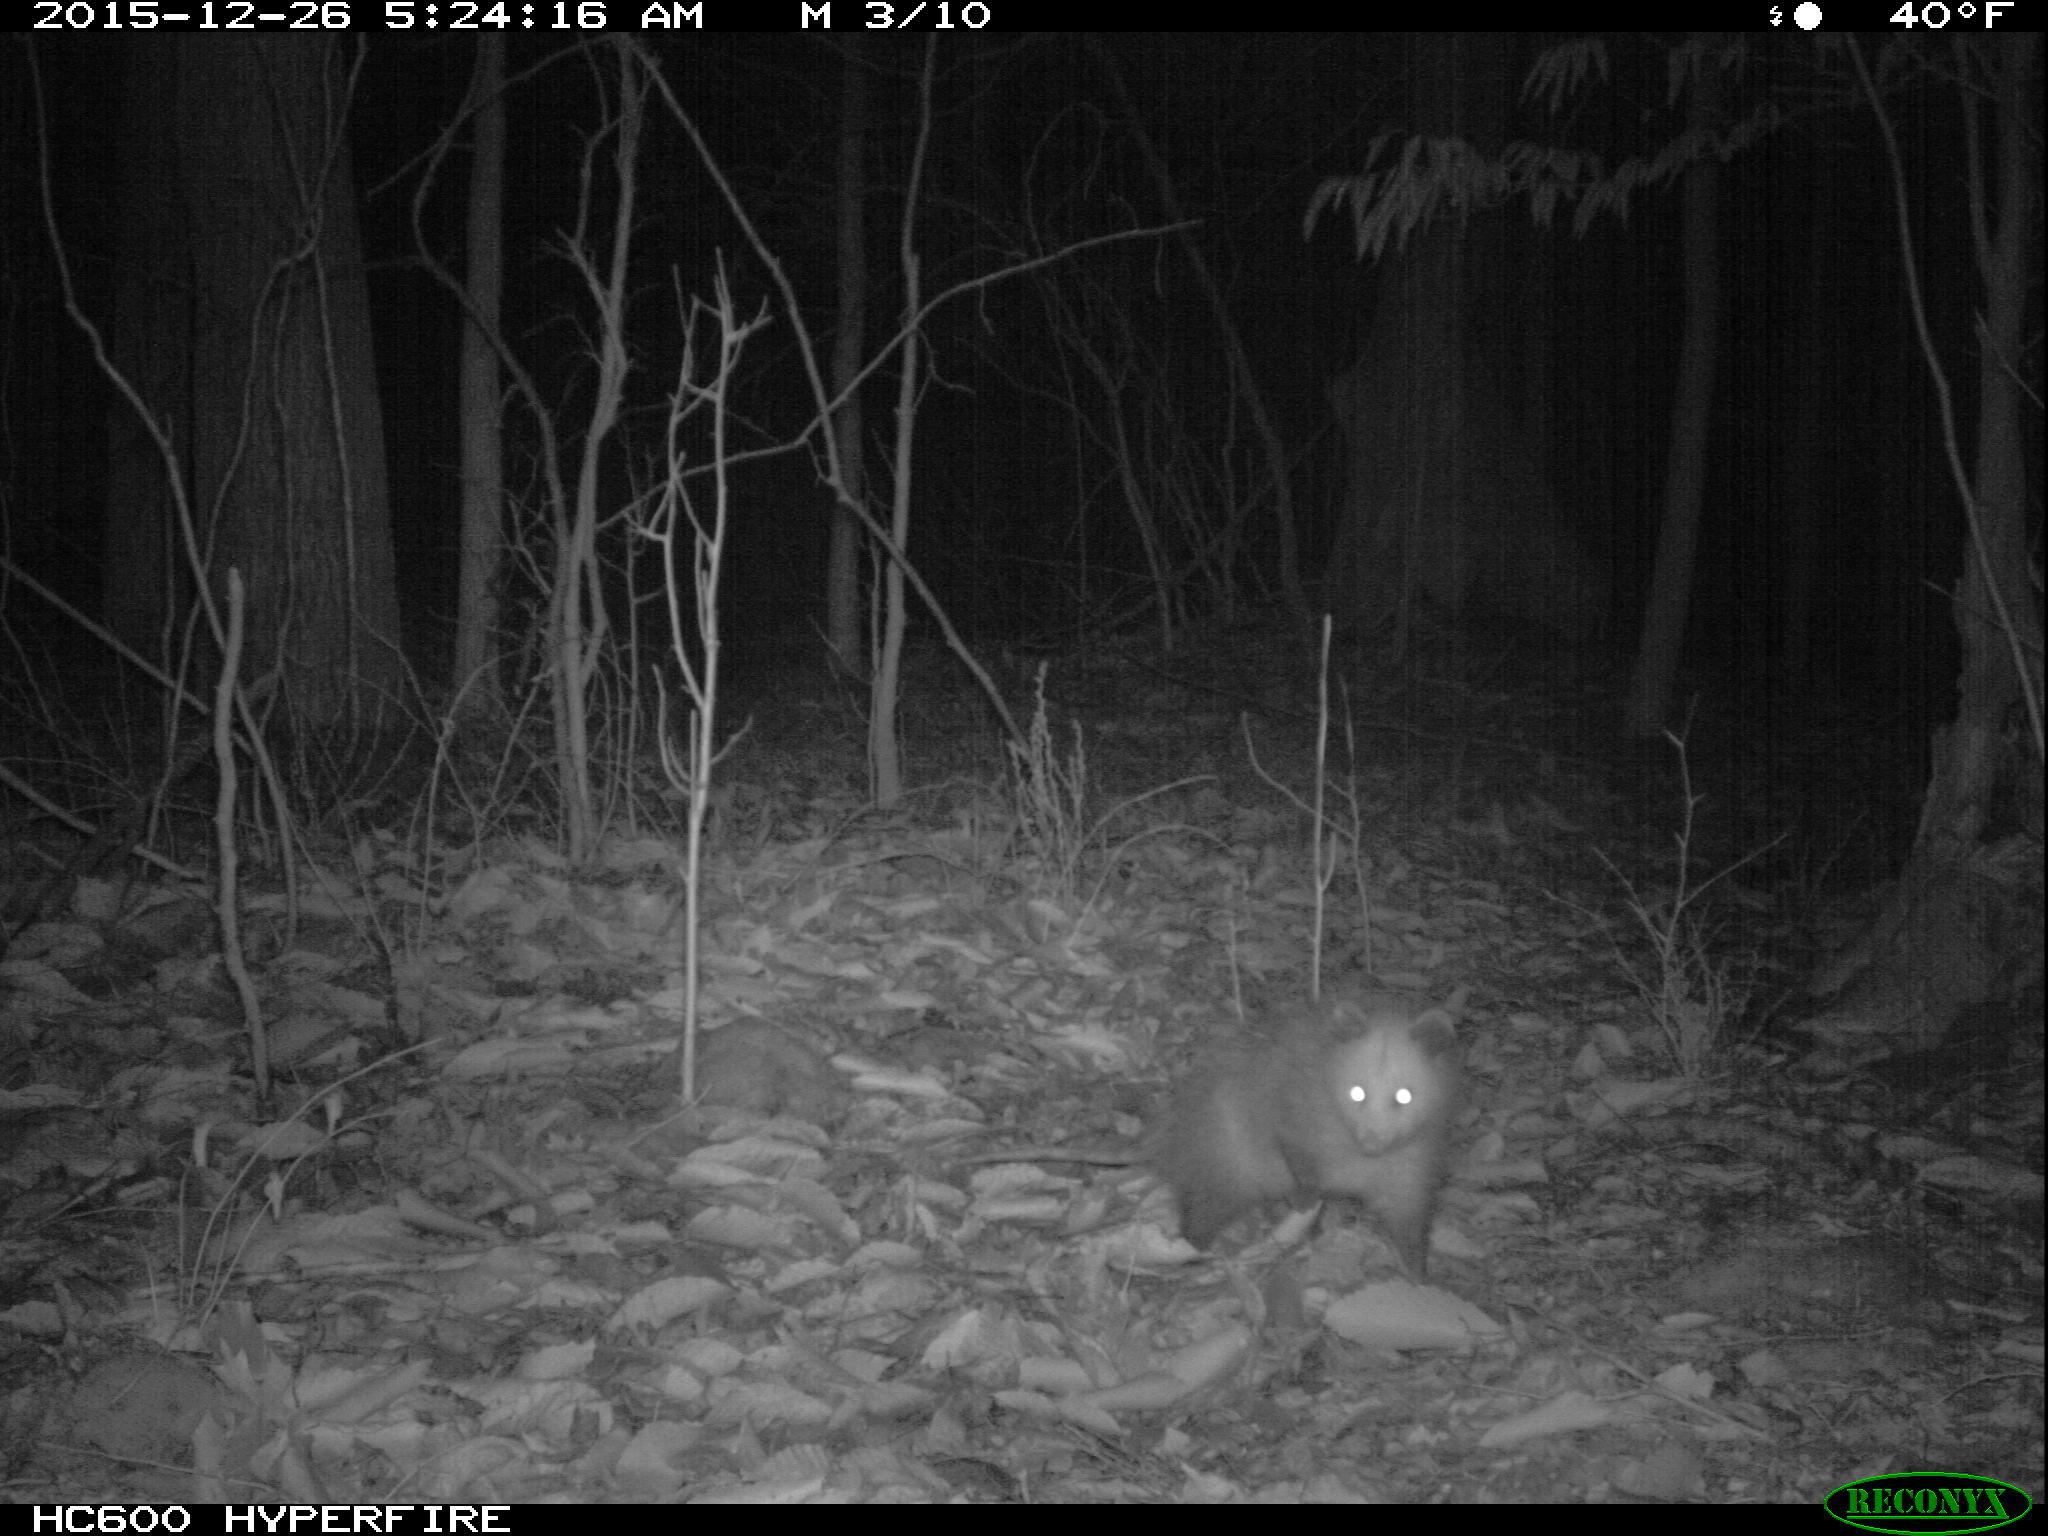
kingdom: Animalia
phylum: Chordata
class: Mammalia
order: Didelphimorphia
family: Didelphidae
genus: Didelphis
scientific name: Didelphis virginiana
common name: Virginia opossum
